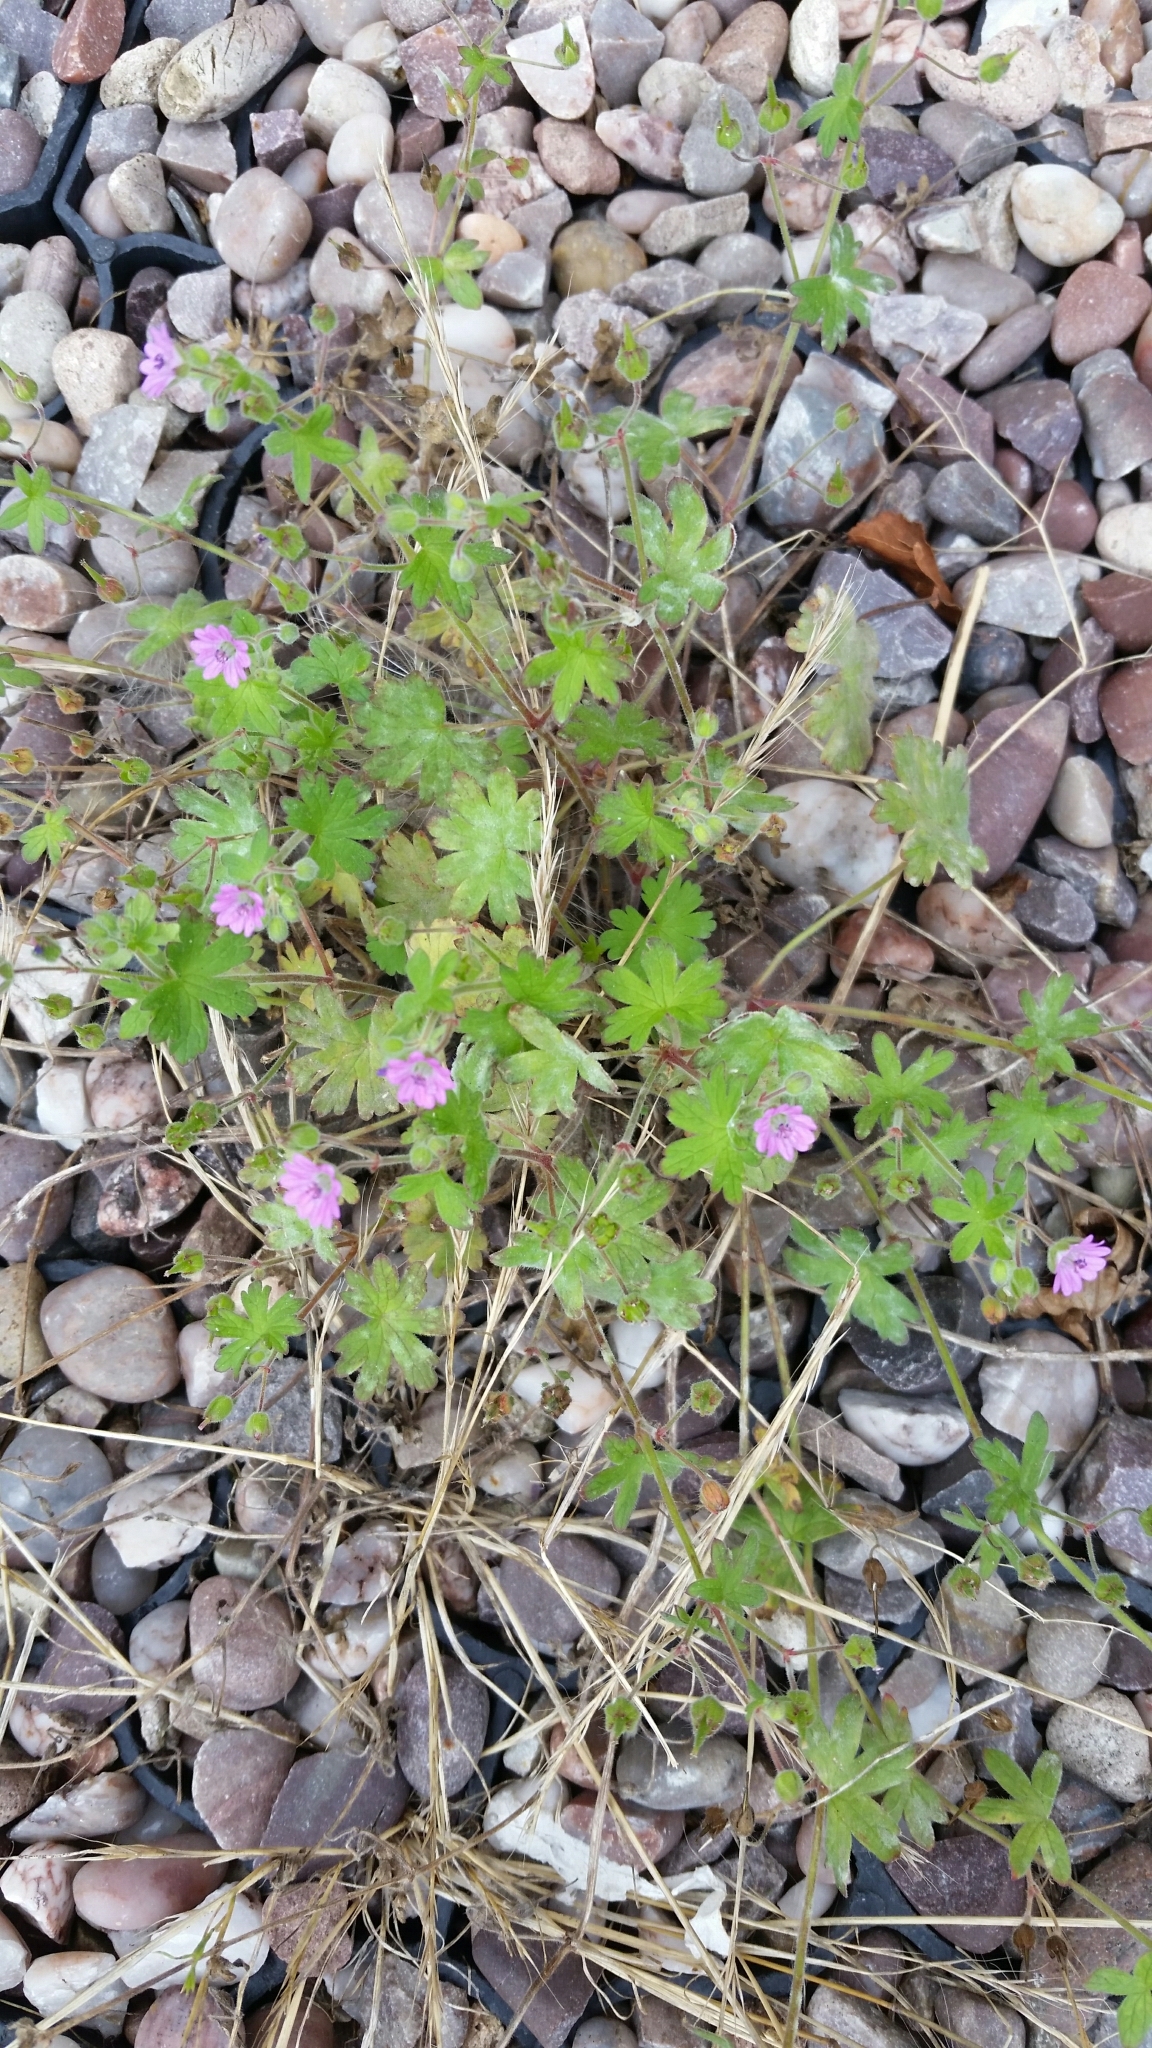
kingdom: Plantae
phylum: Tracheophyta
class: Magnoliopsida
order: Geraniales
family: Geraniaceae
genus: Geranium
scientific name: Geranium molle
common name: Dove's-foot crane's-bill
